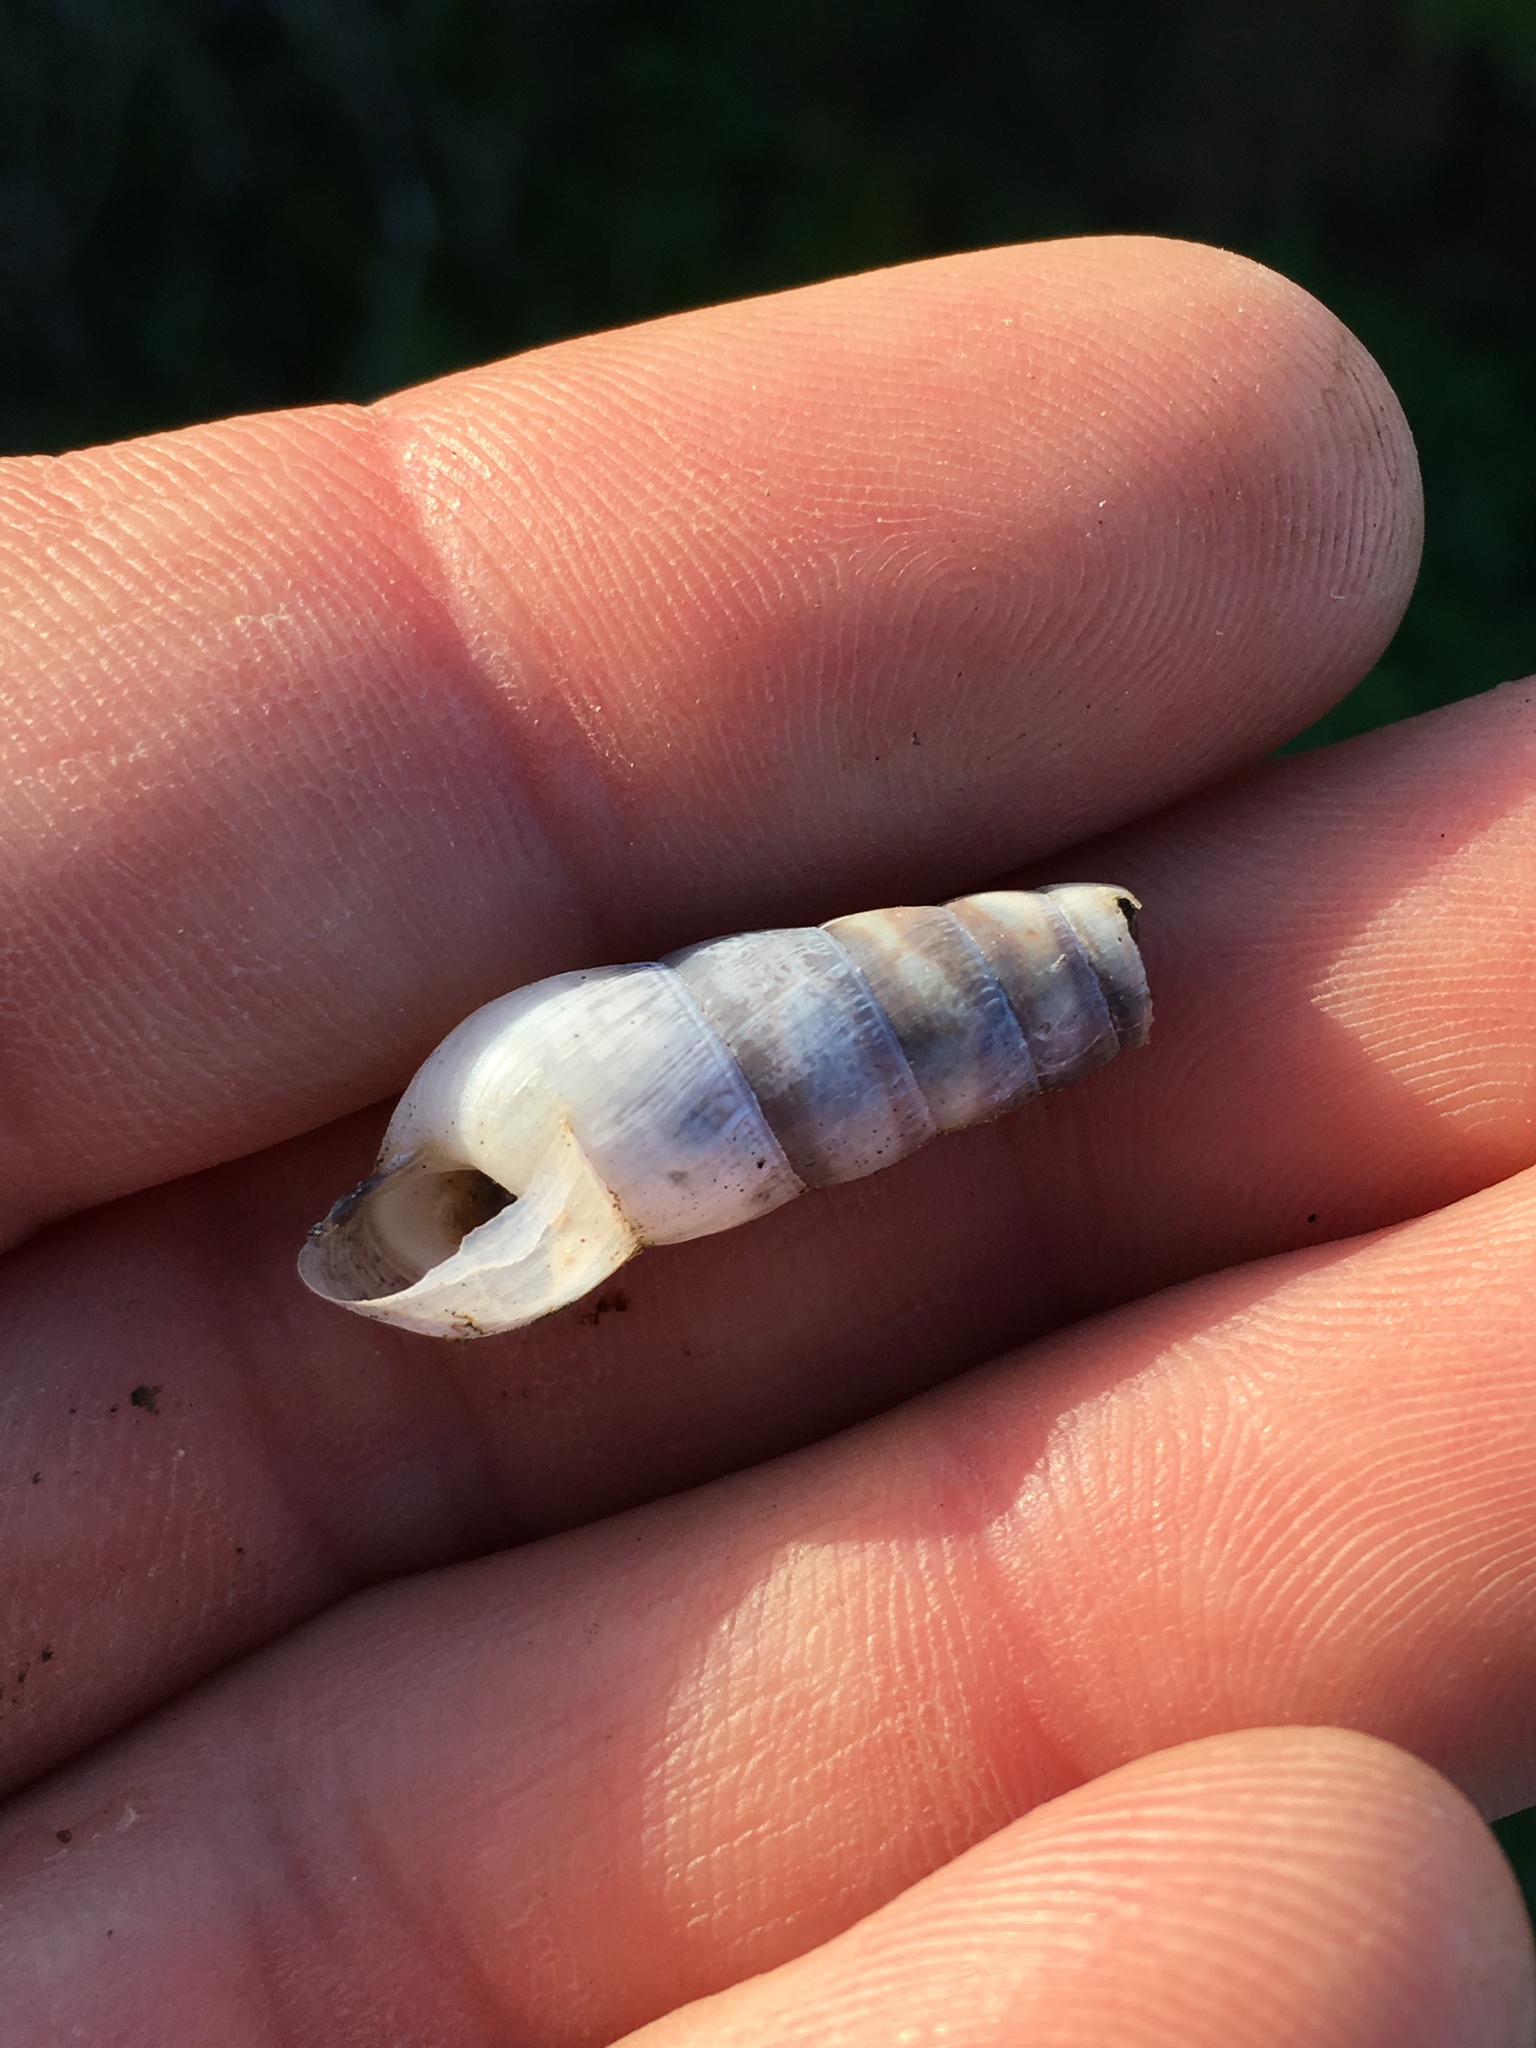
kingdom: Animalia
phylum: Mollusca
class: Gastropoda
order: Stylommatophora
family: Achatinidae
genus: Rumina
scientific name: Rumina decollata
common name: Decollate snail
